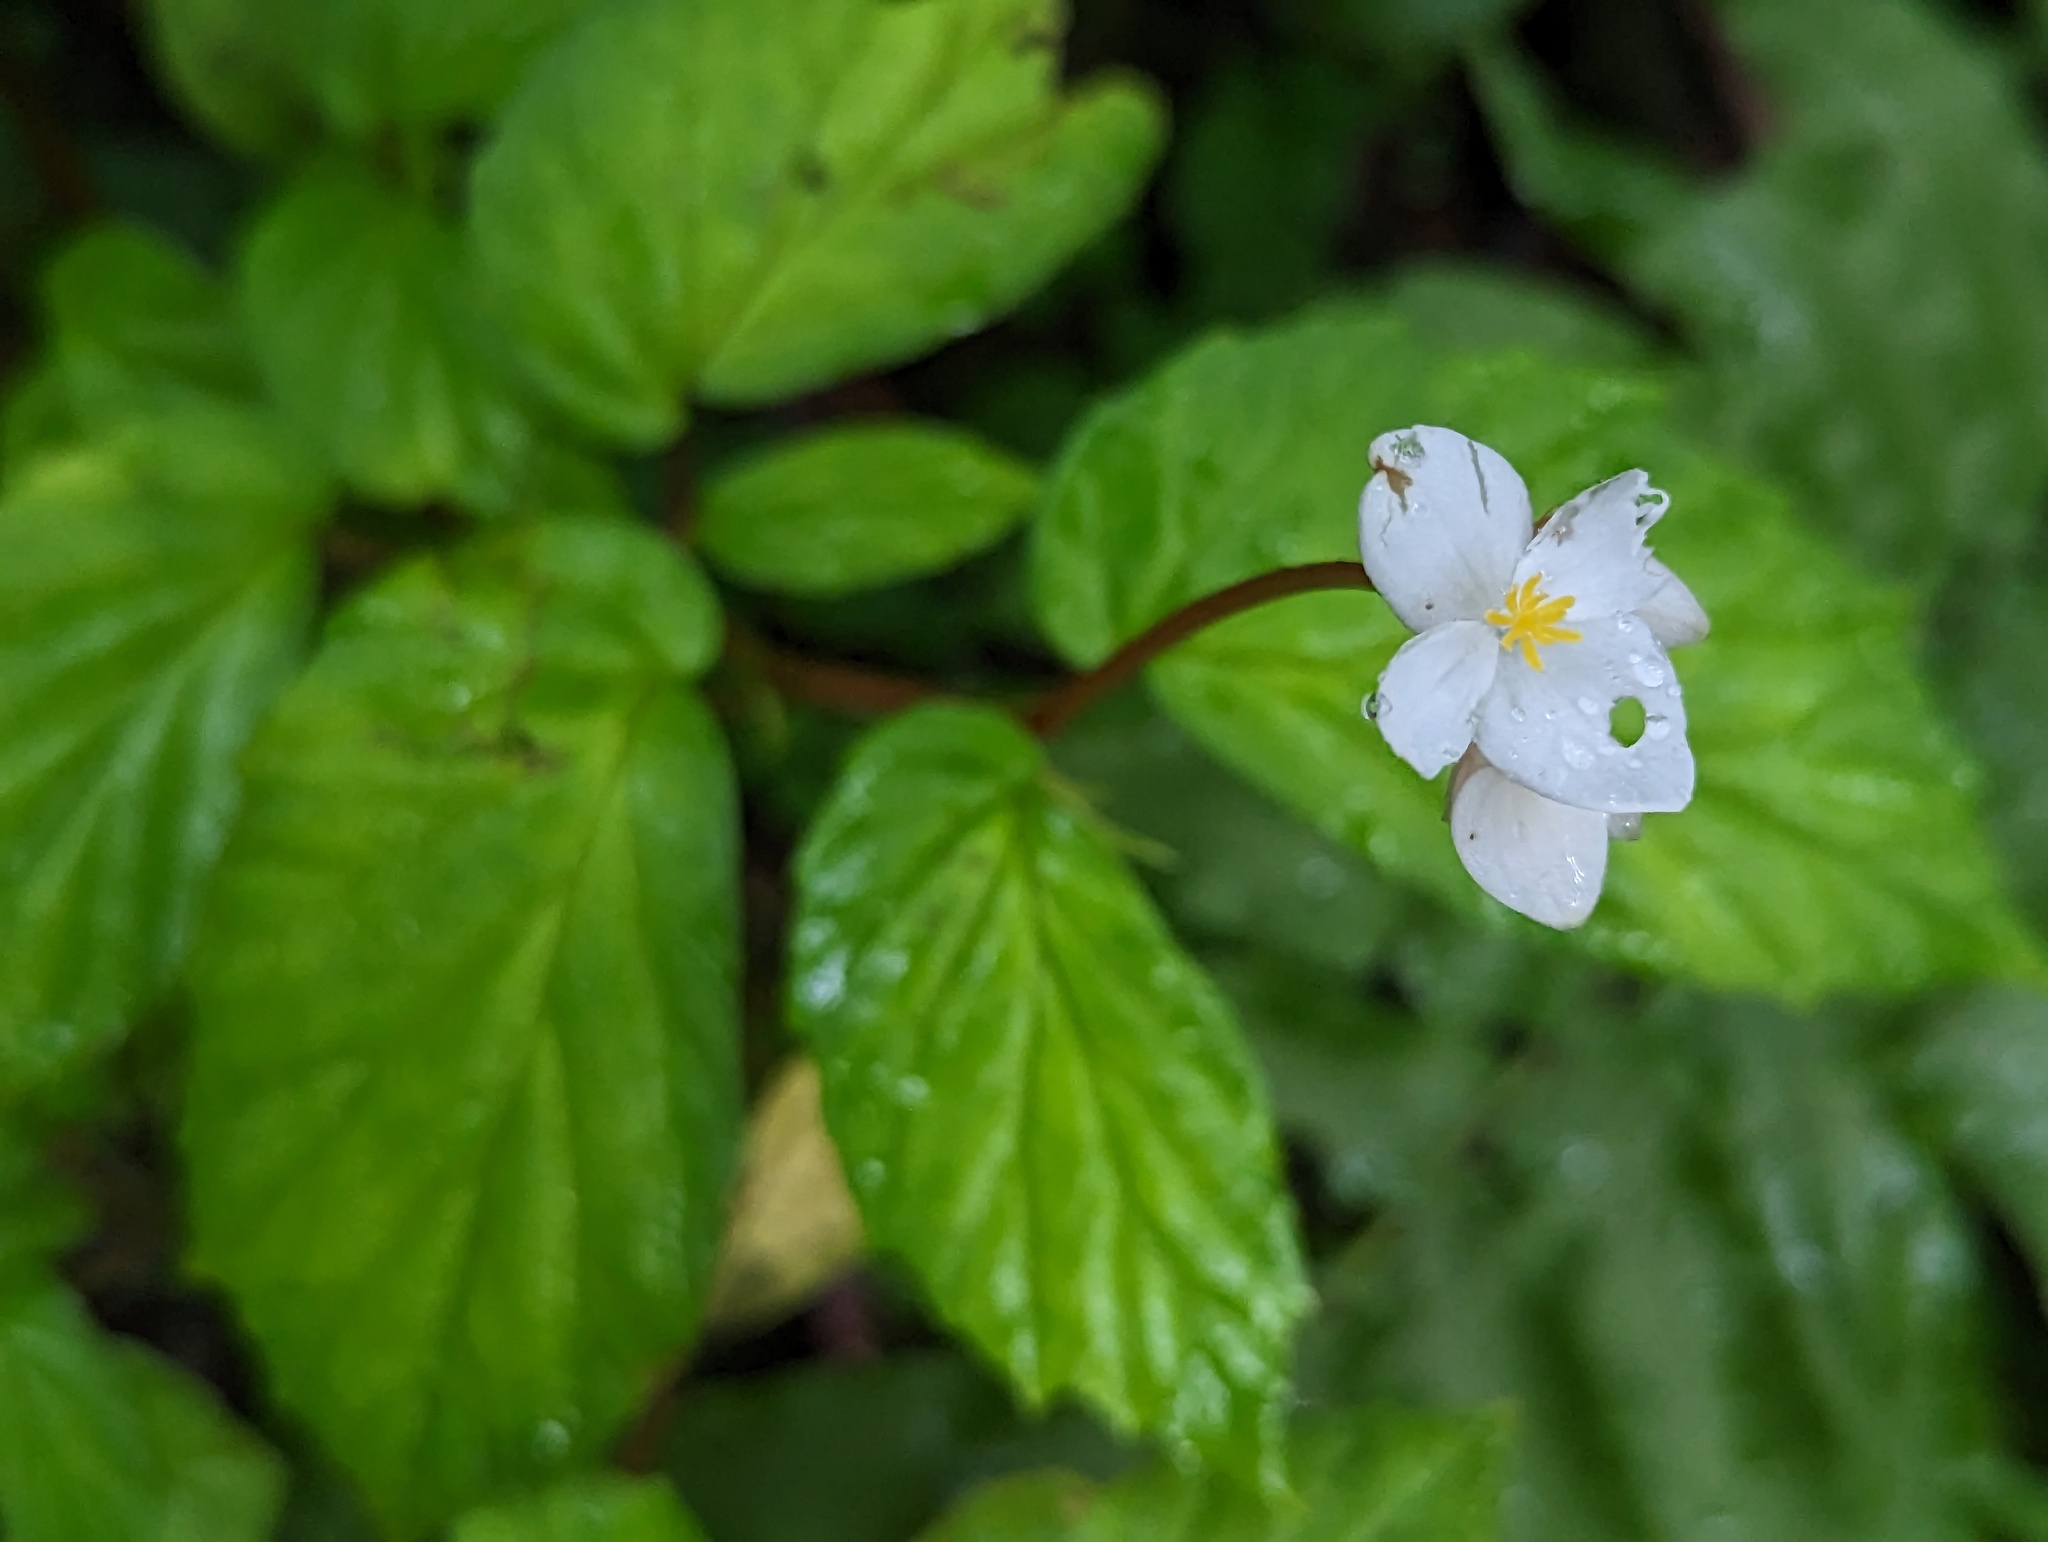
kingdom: Plantae
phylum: Tracheophyta
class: Magnoliopsida
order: Cucurbitales
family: Begoniaceae
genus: Begonia
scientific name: Begonia decandra
